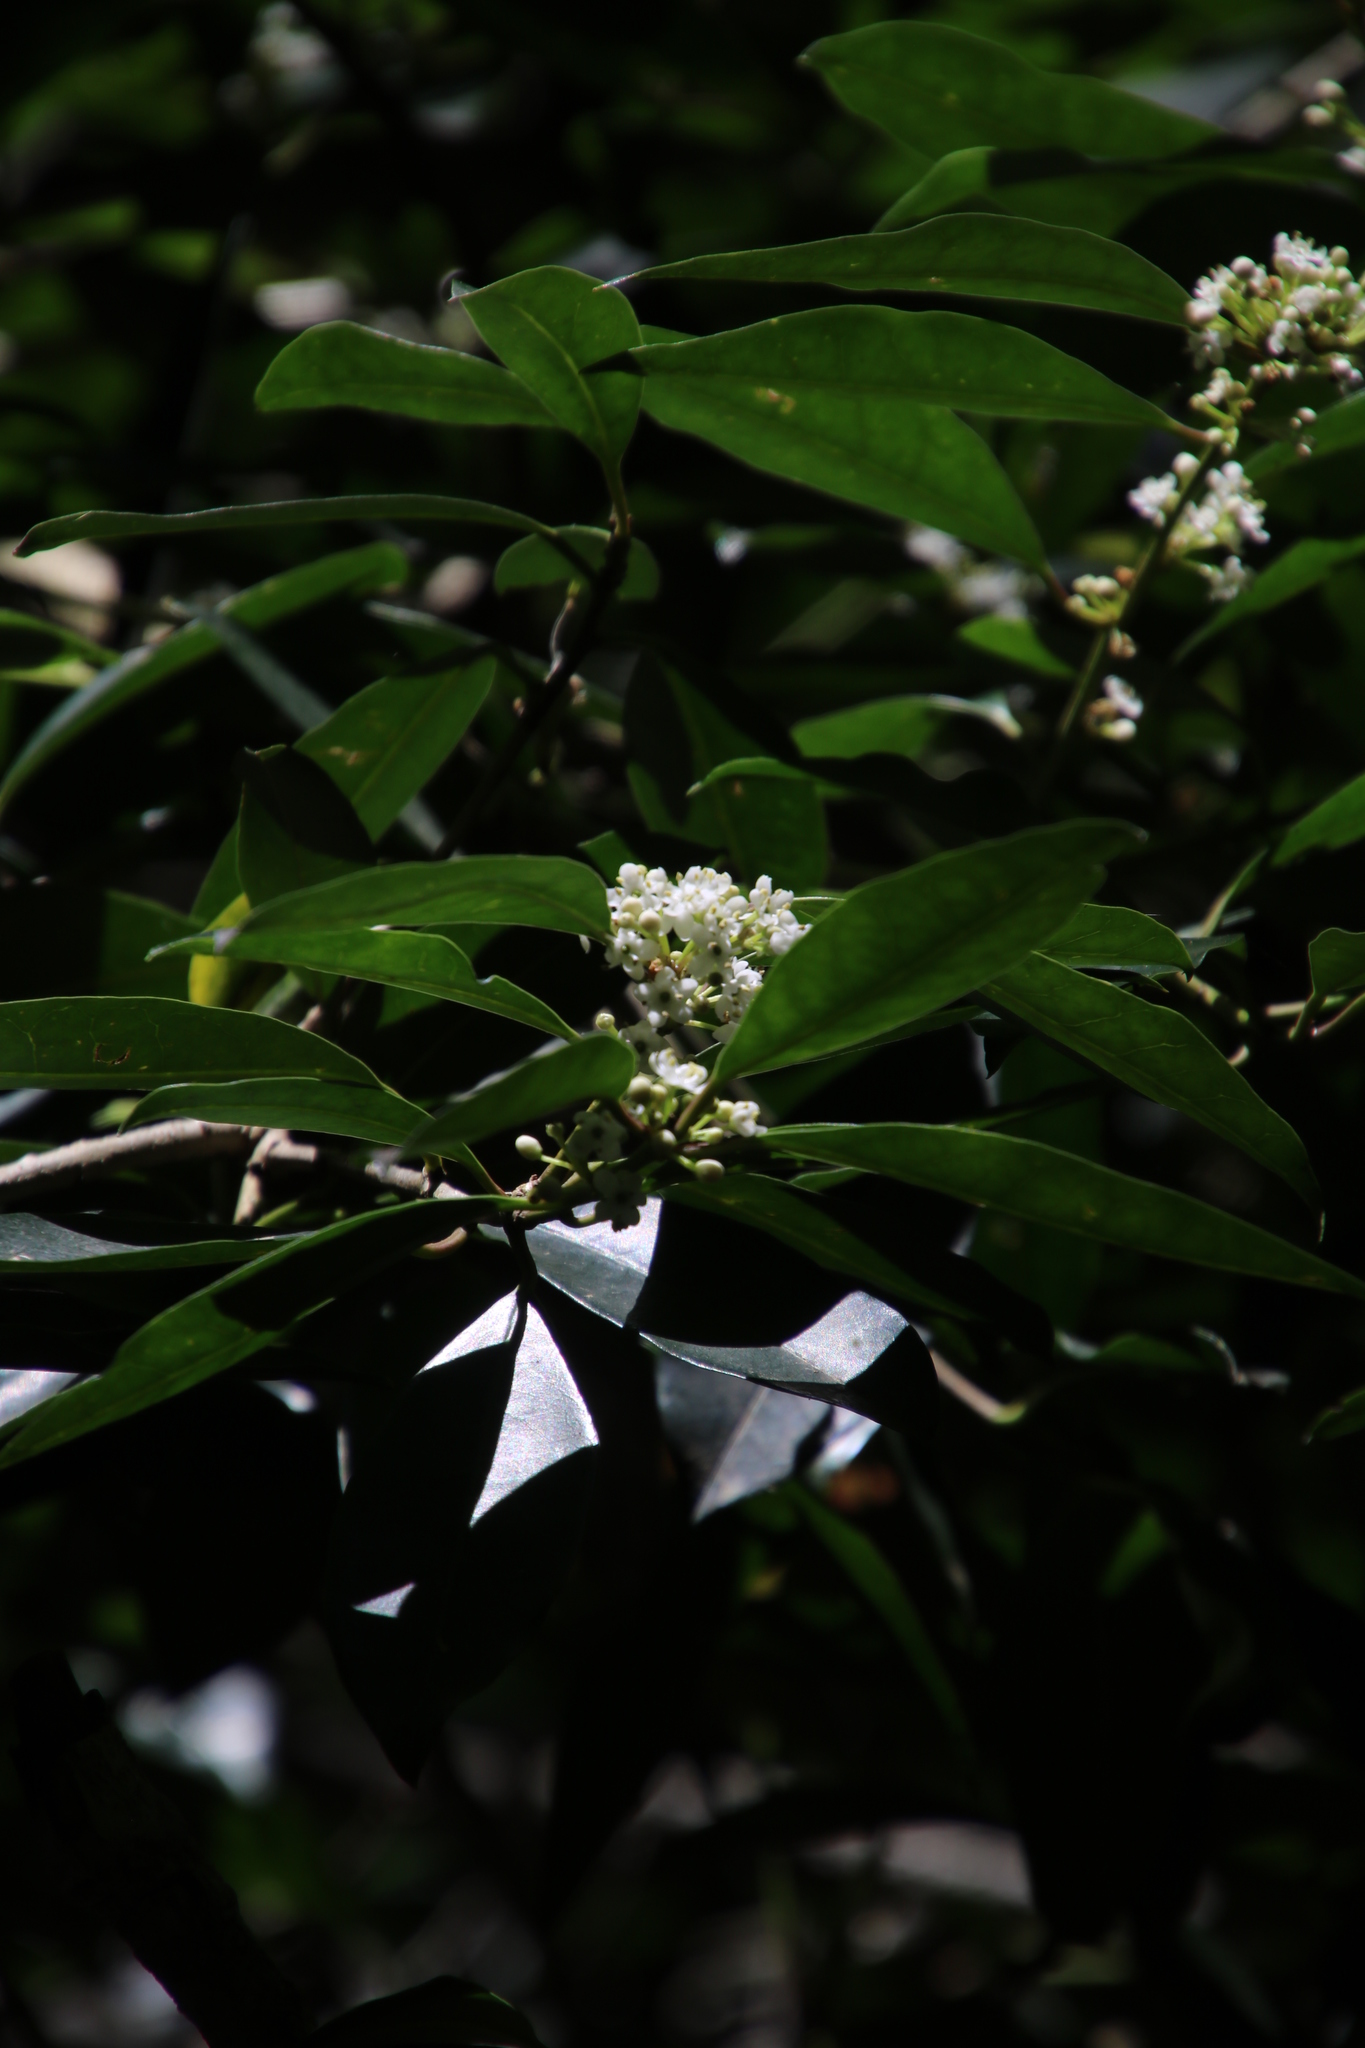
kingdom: Plantae
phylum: Tracheophyta
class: Magnoliopsida
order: Aquifoliales
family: Aquifoliaceae
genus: Ilex
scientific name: Ilex mitis
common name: African holly
